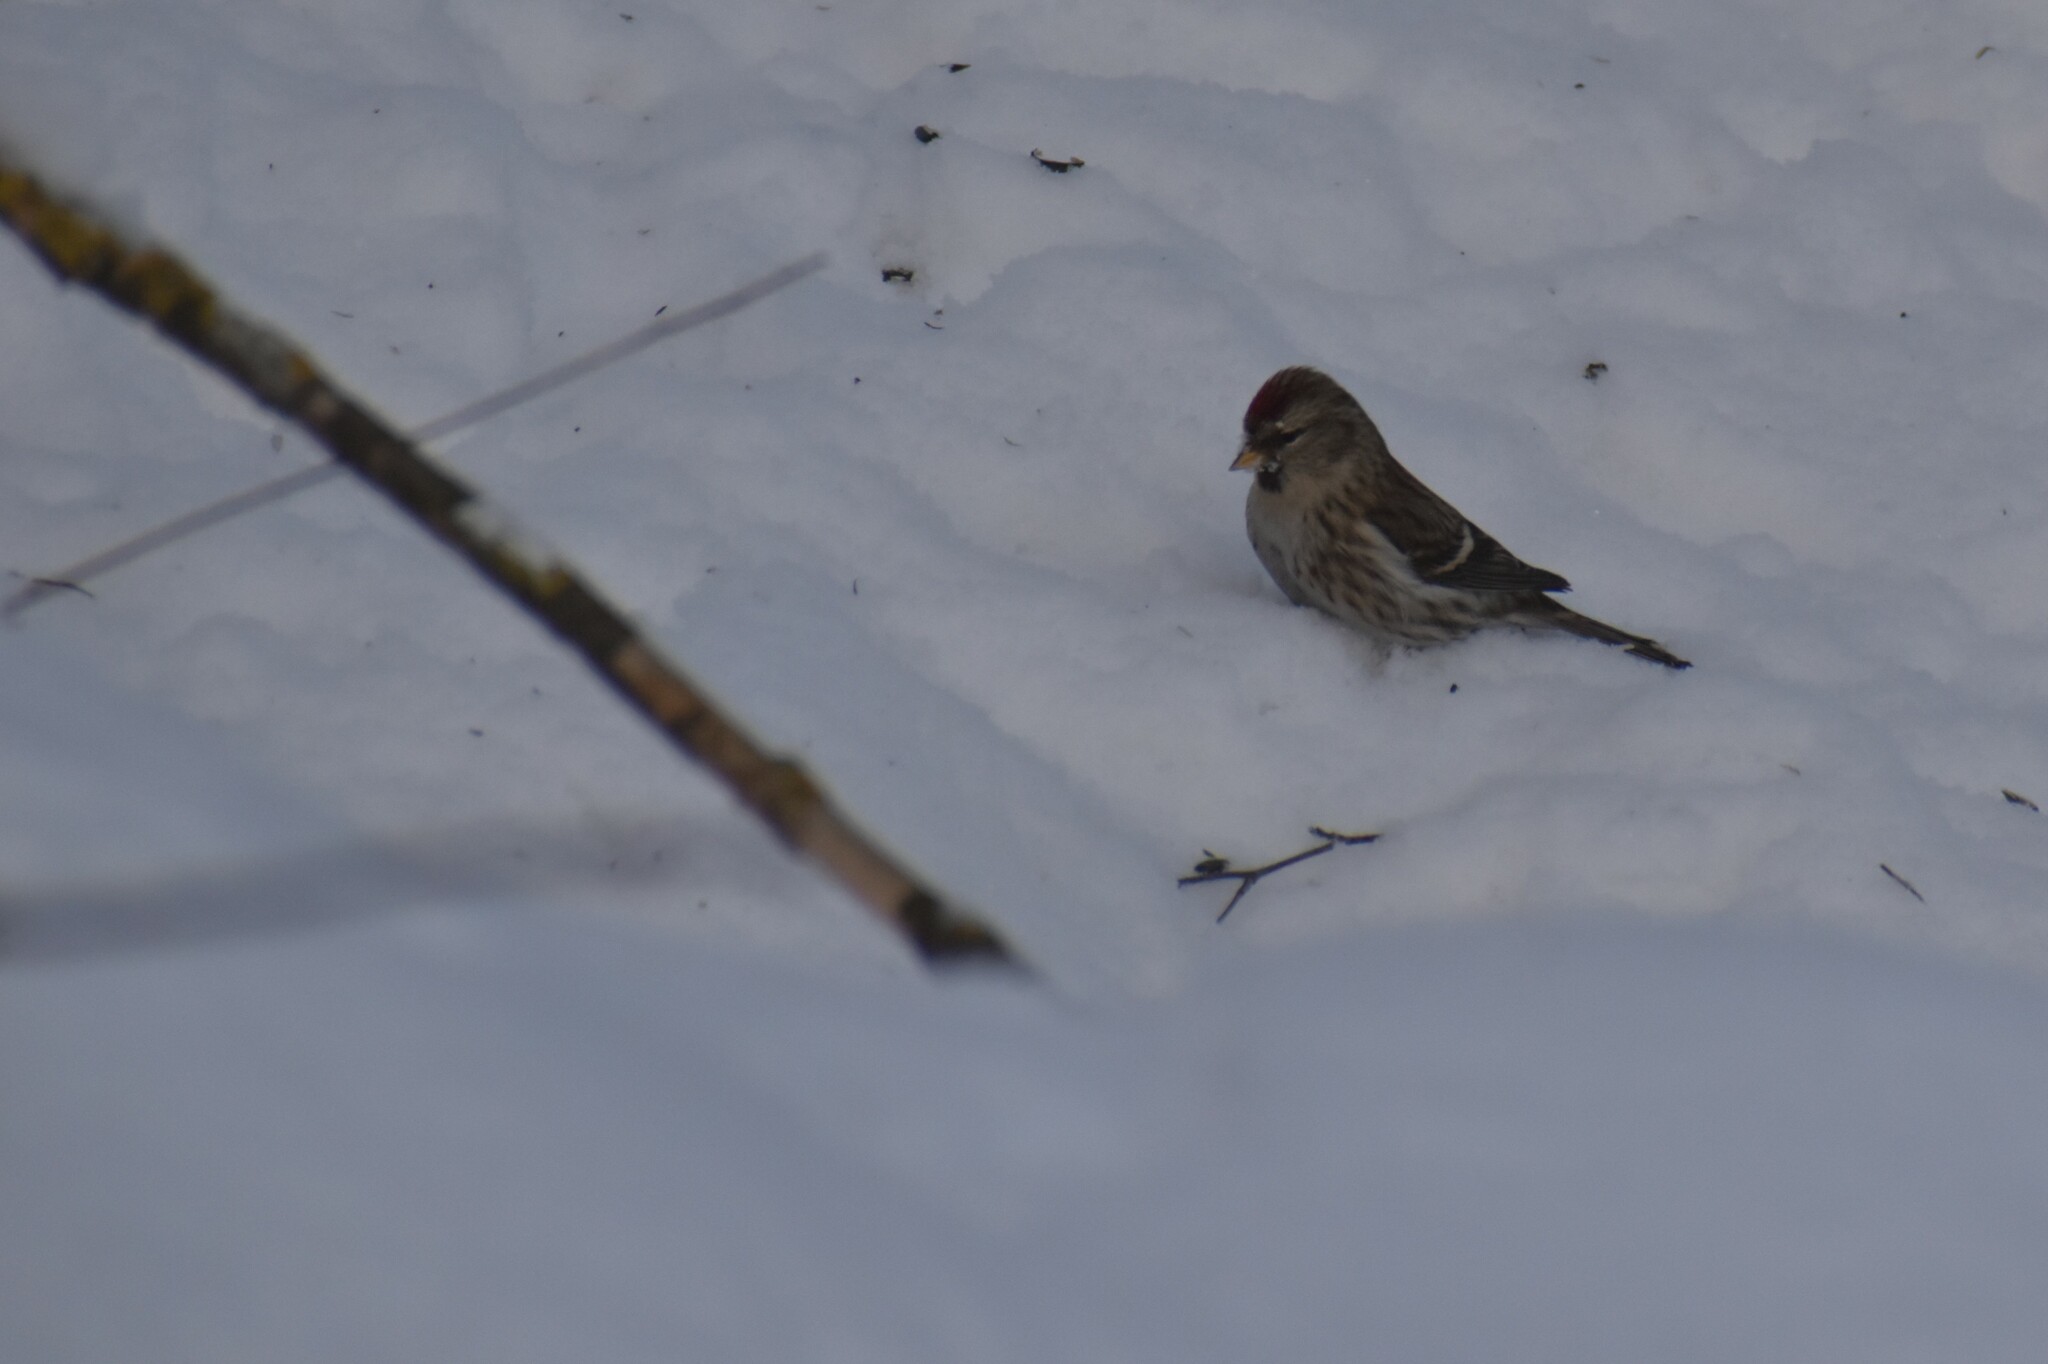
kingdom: Animalia
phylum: Chordata
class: Aves
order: Passeriformes
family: Fringillidae
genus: Acanthis
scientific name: Acanthis flammea
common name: Common redpoll
